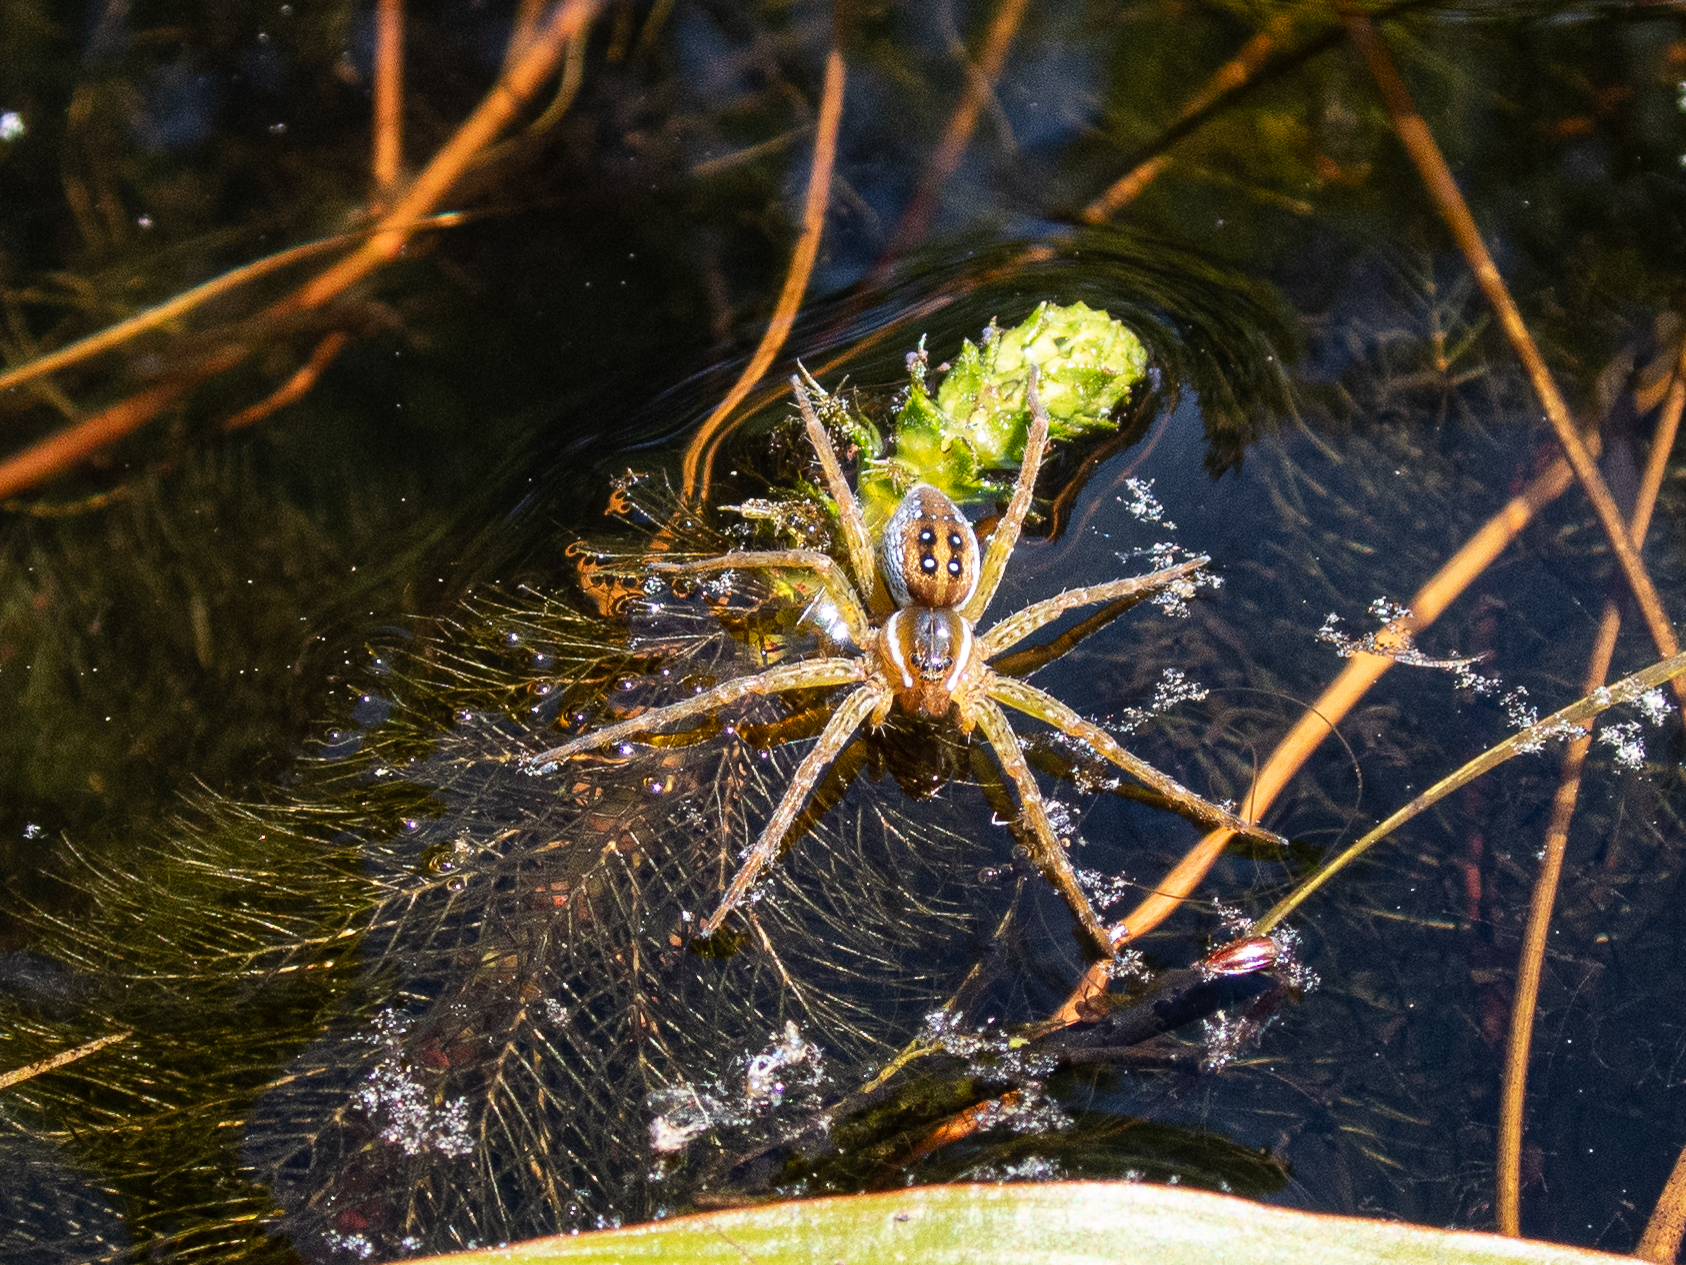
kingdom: Animalia
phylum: Arthropoda
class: Arachnida
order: Araneae
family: Pisauridae
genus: Dolomedes
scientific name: Dolomedes triton
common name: Six-spotted fishing spider
